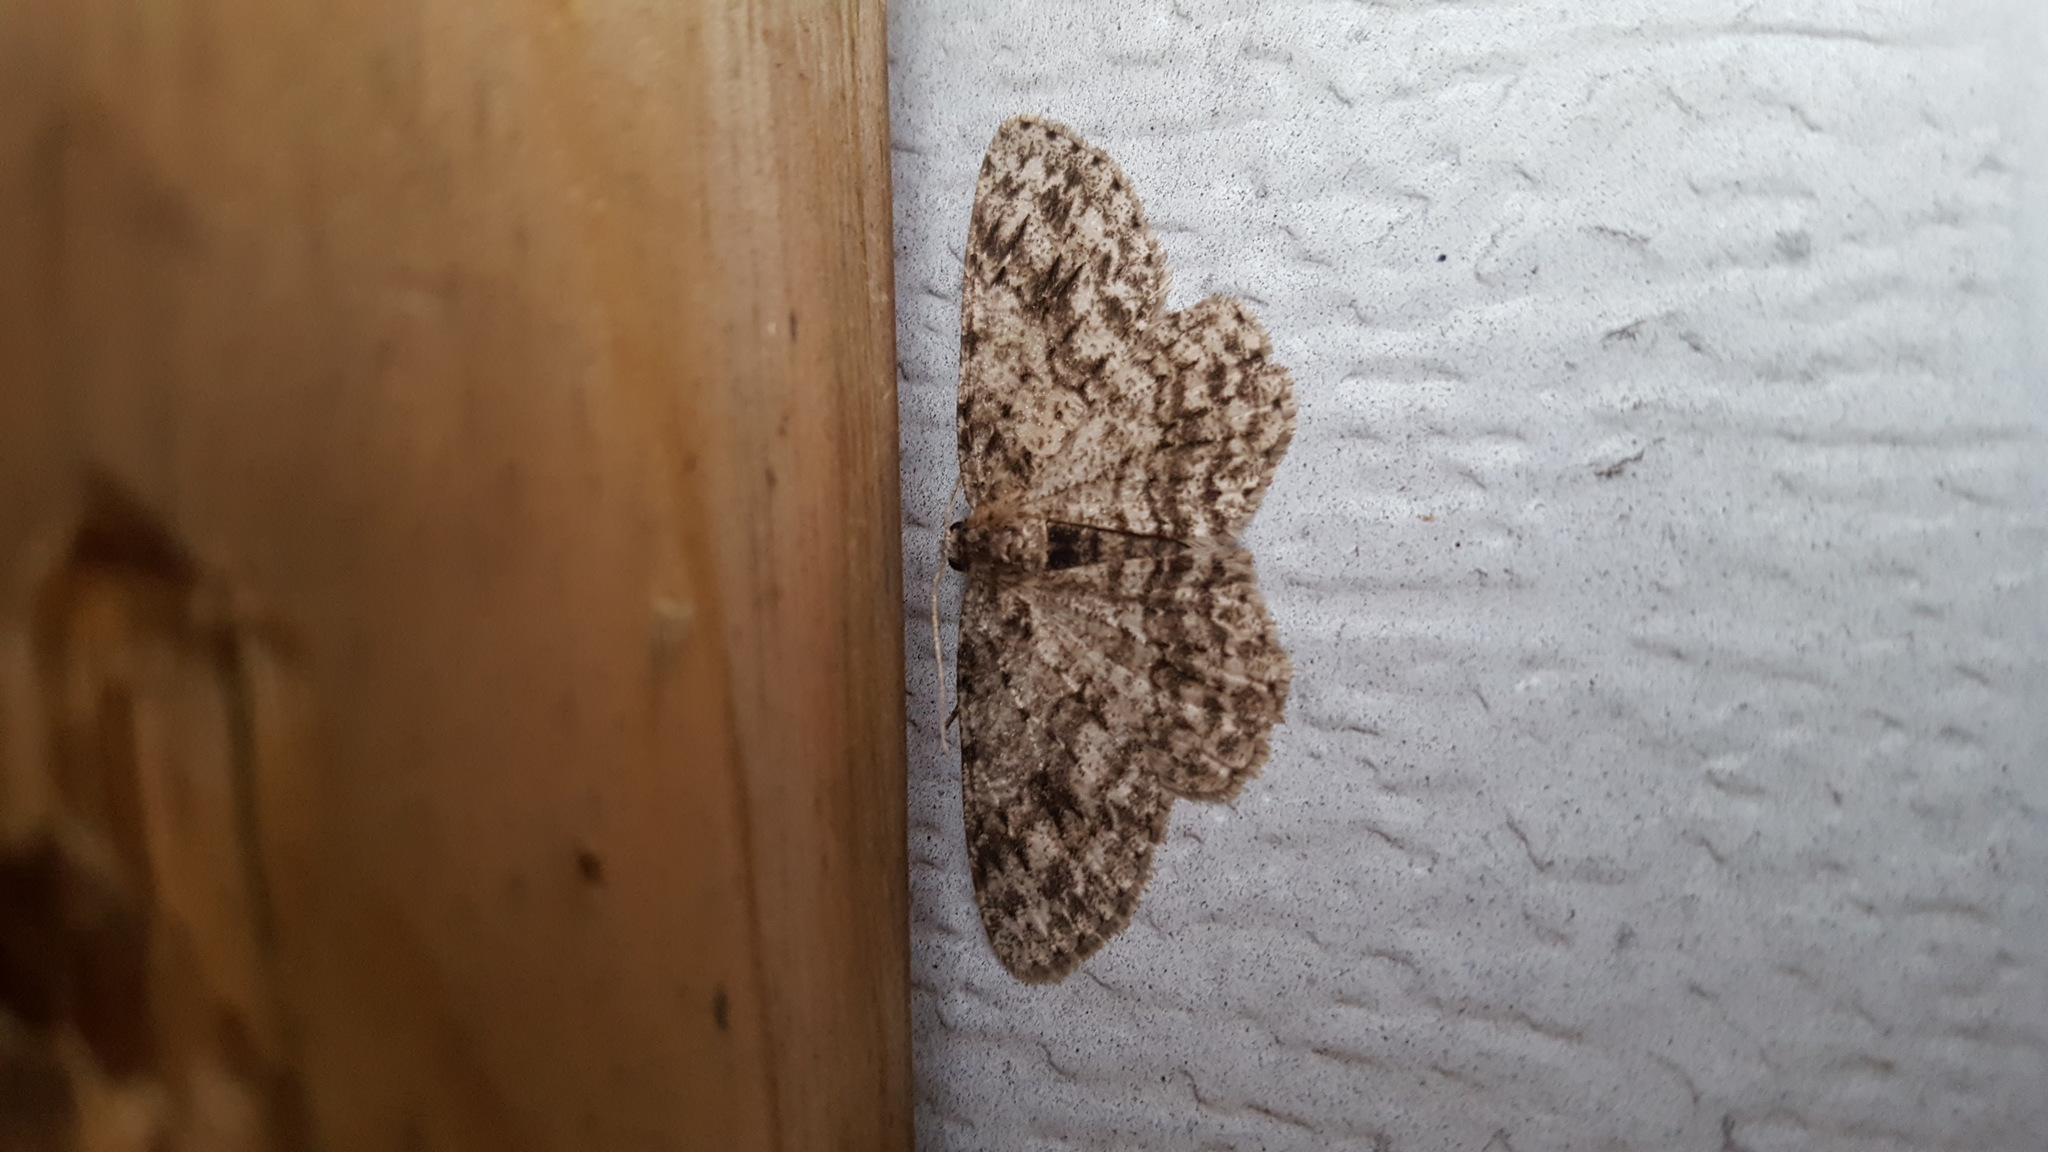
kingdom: Animalia
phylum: Arthropoda
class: Insecta
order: Lepidoptera
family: Geometridae
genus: Ectropis
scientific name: Ectropis crepuscularia
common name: Engrailed
